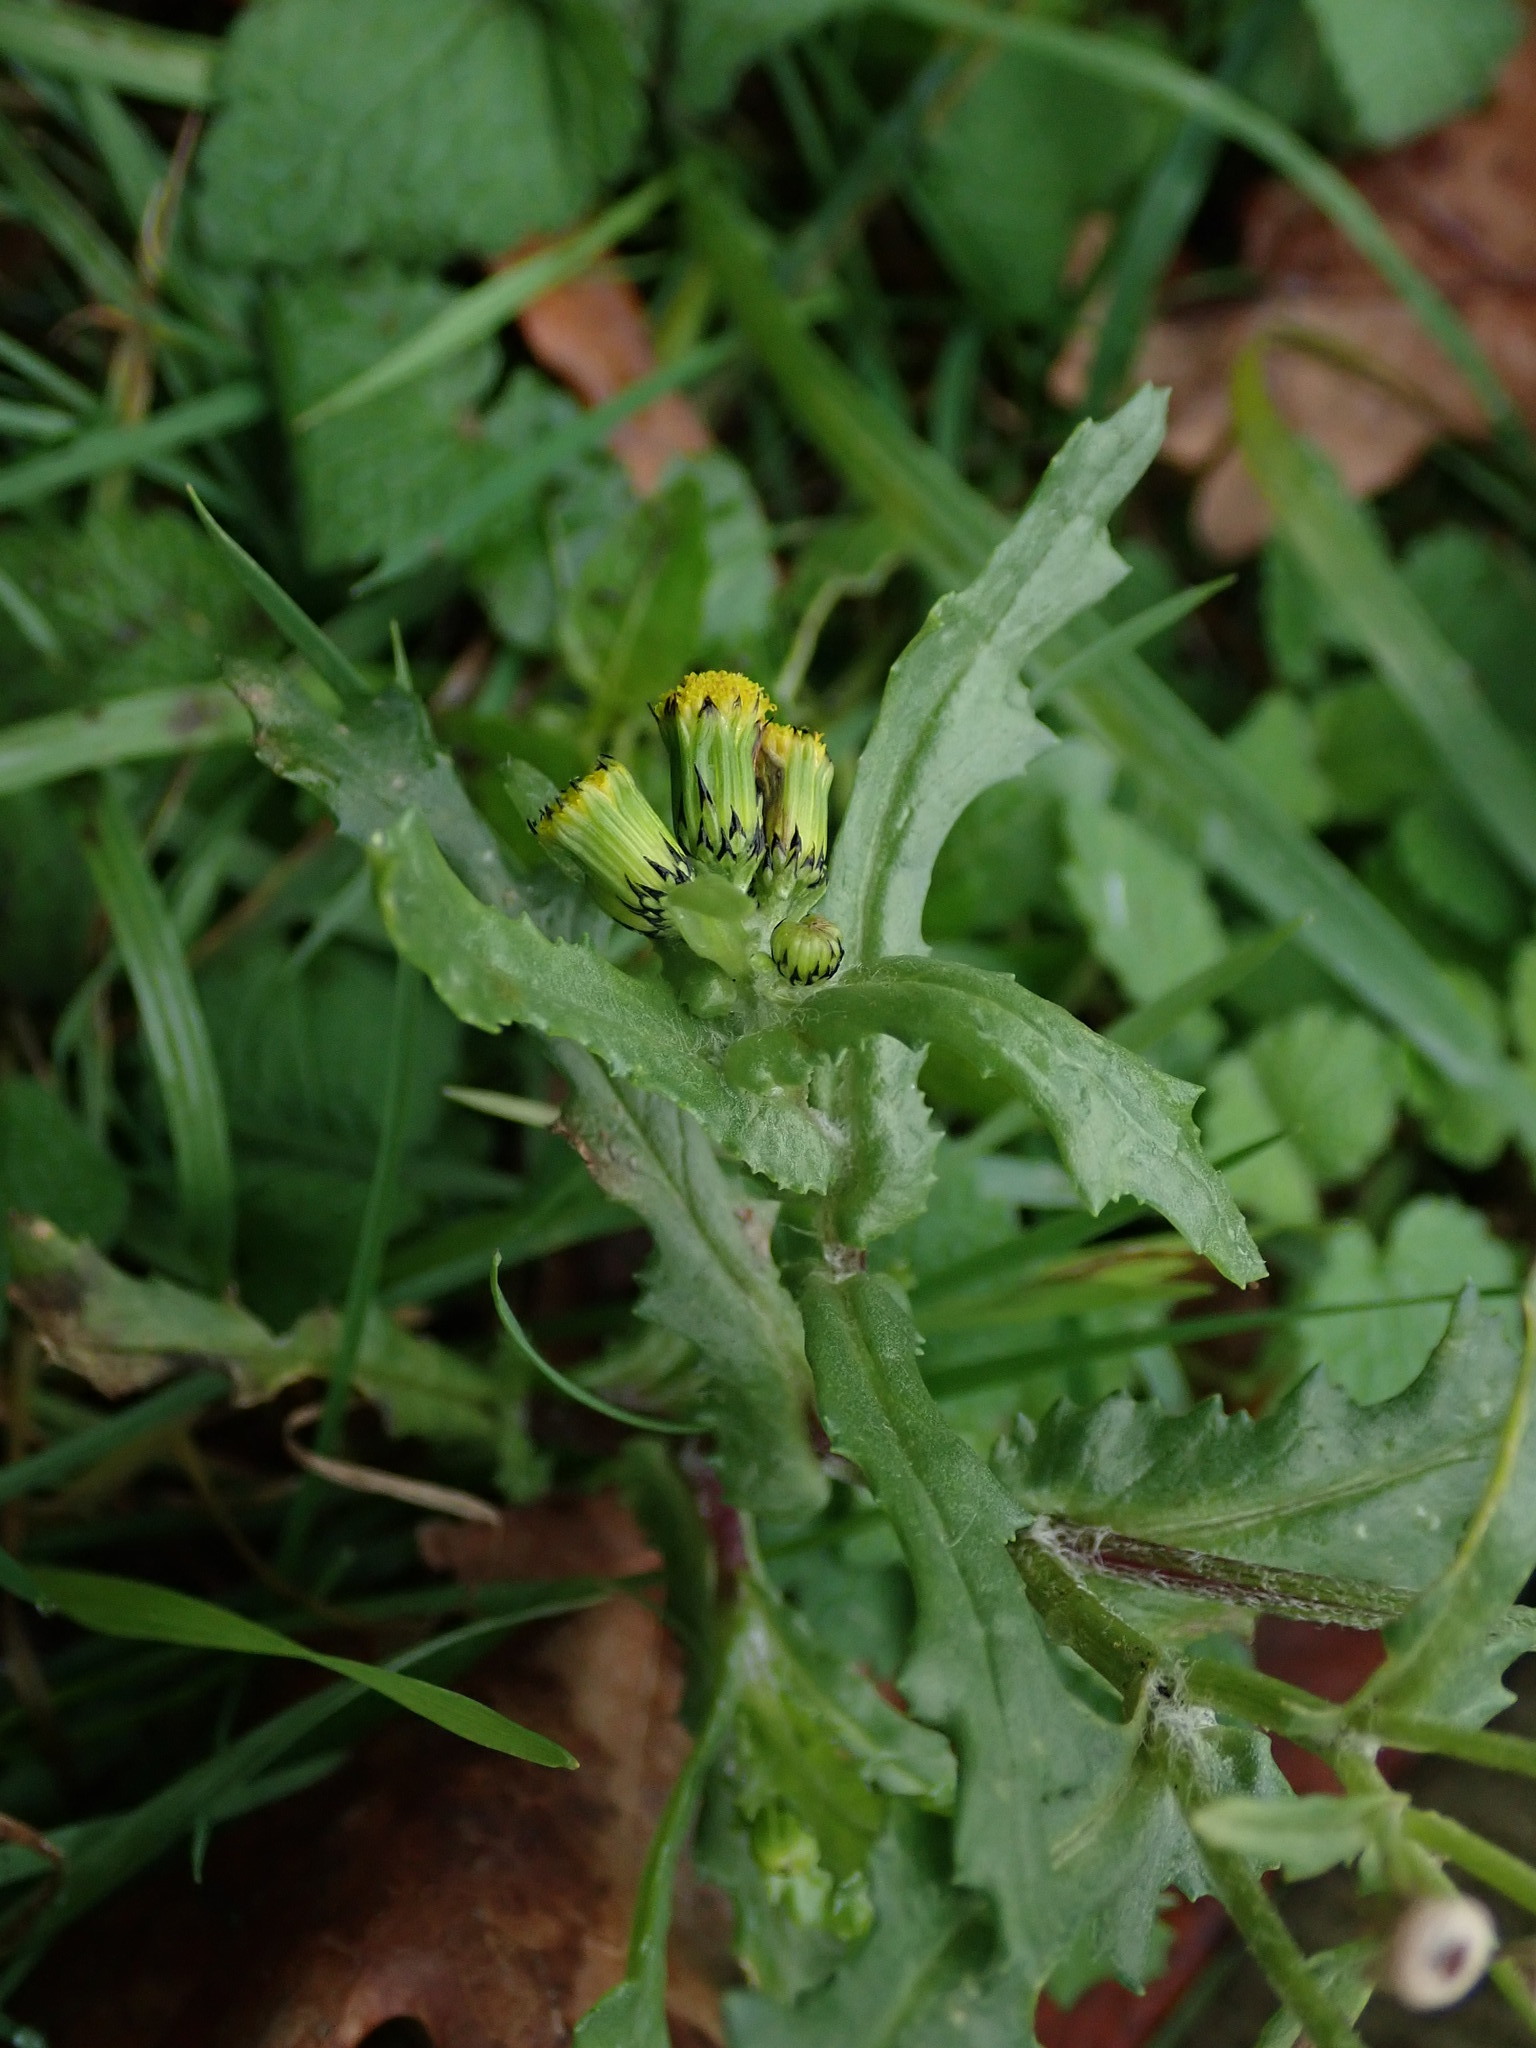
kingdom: Plantae
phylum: Tracheophyta
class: Magnoliopsida
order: Asterales
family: Asteraceae
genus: Senecio
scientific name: Senecio vulgaris
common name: Old-man-in-the-spring
